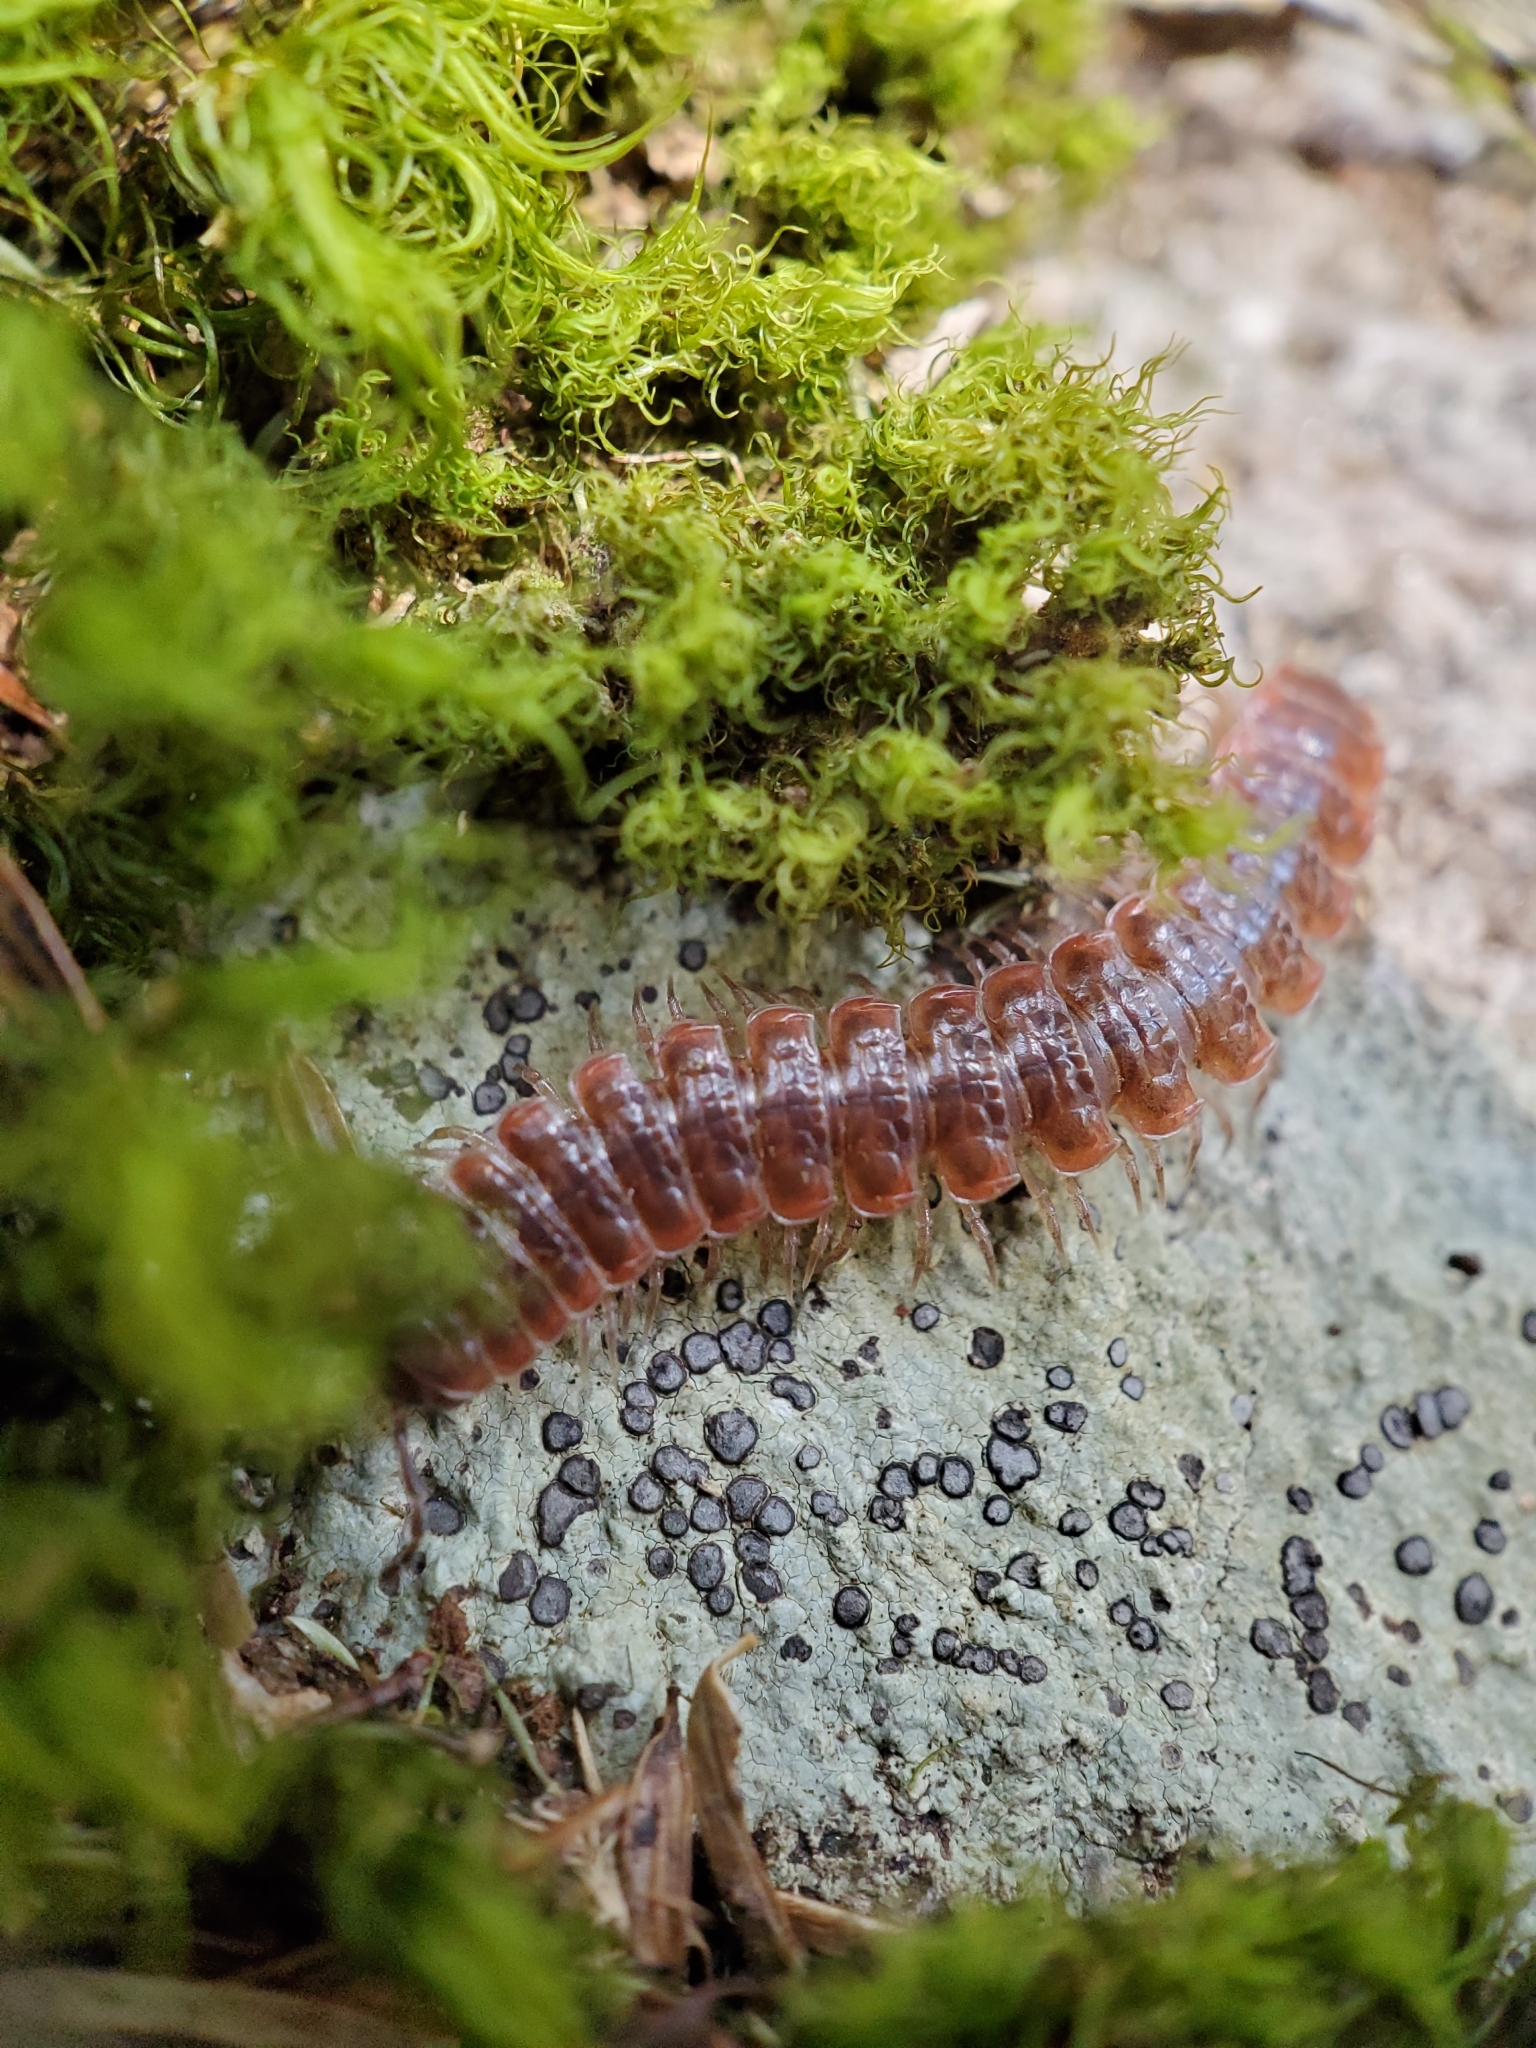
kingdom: Animalia
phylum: Arthropoda
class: Diplopoda
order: Polydesmida
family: Polydesmidae
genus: Pseudopolydesmus
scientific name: Pseudopolydesmus serratus
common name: Common pink flat-back millipede
